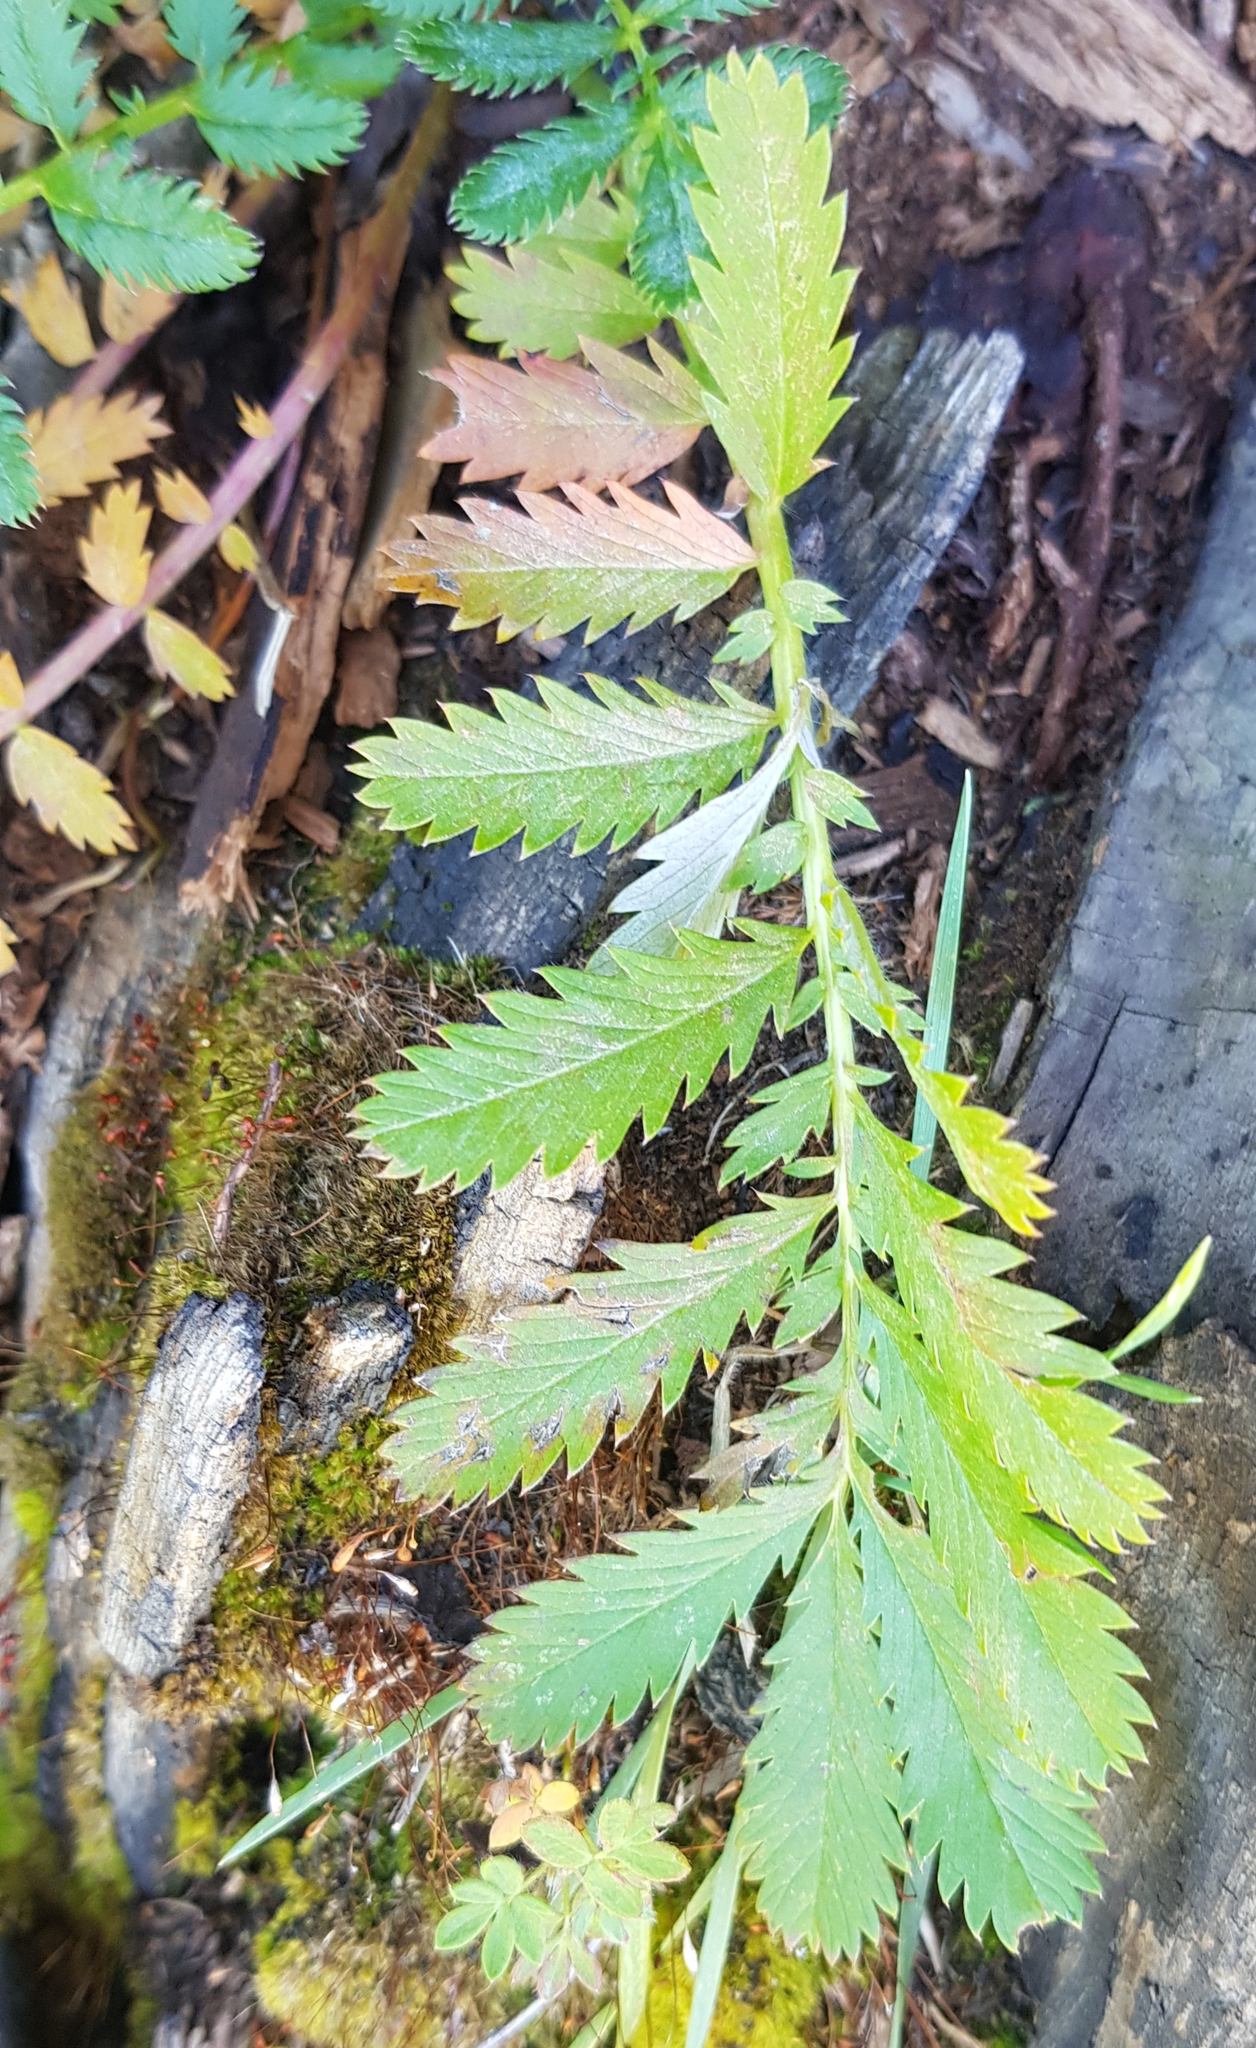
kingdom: Plantae
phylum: Tracheophyta
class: Magnoliopsida
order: Rosales
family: Rosaceae
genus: Argentina
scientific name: Argentina anserina
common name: Common silverweed
